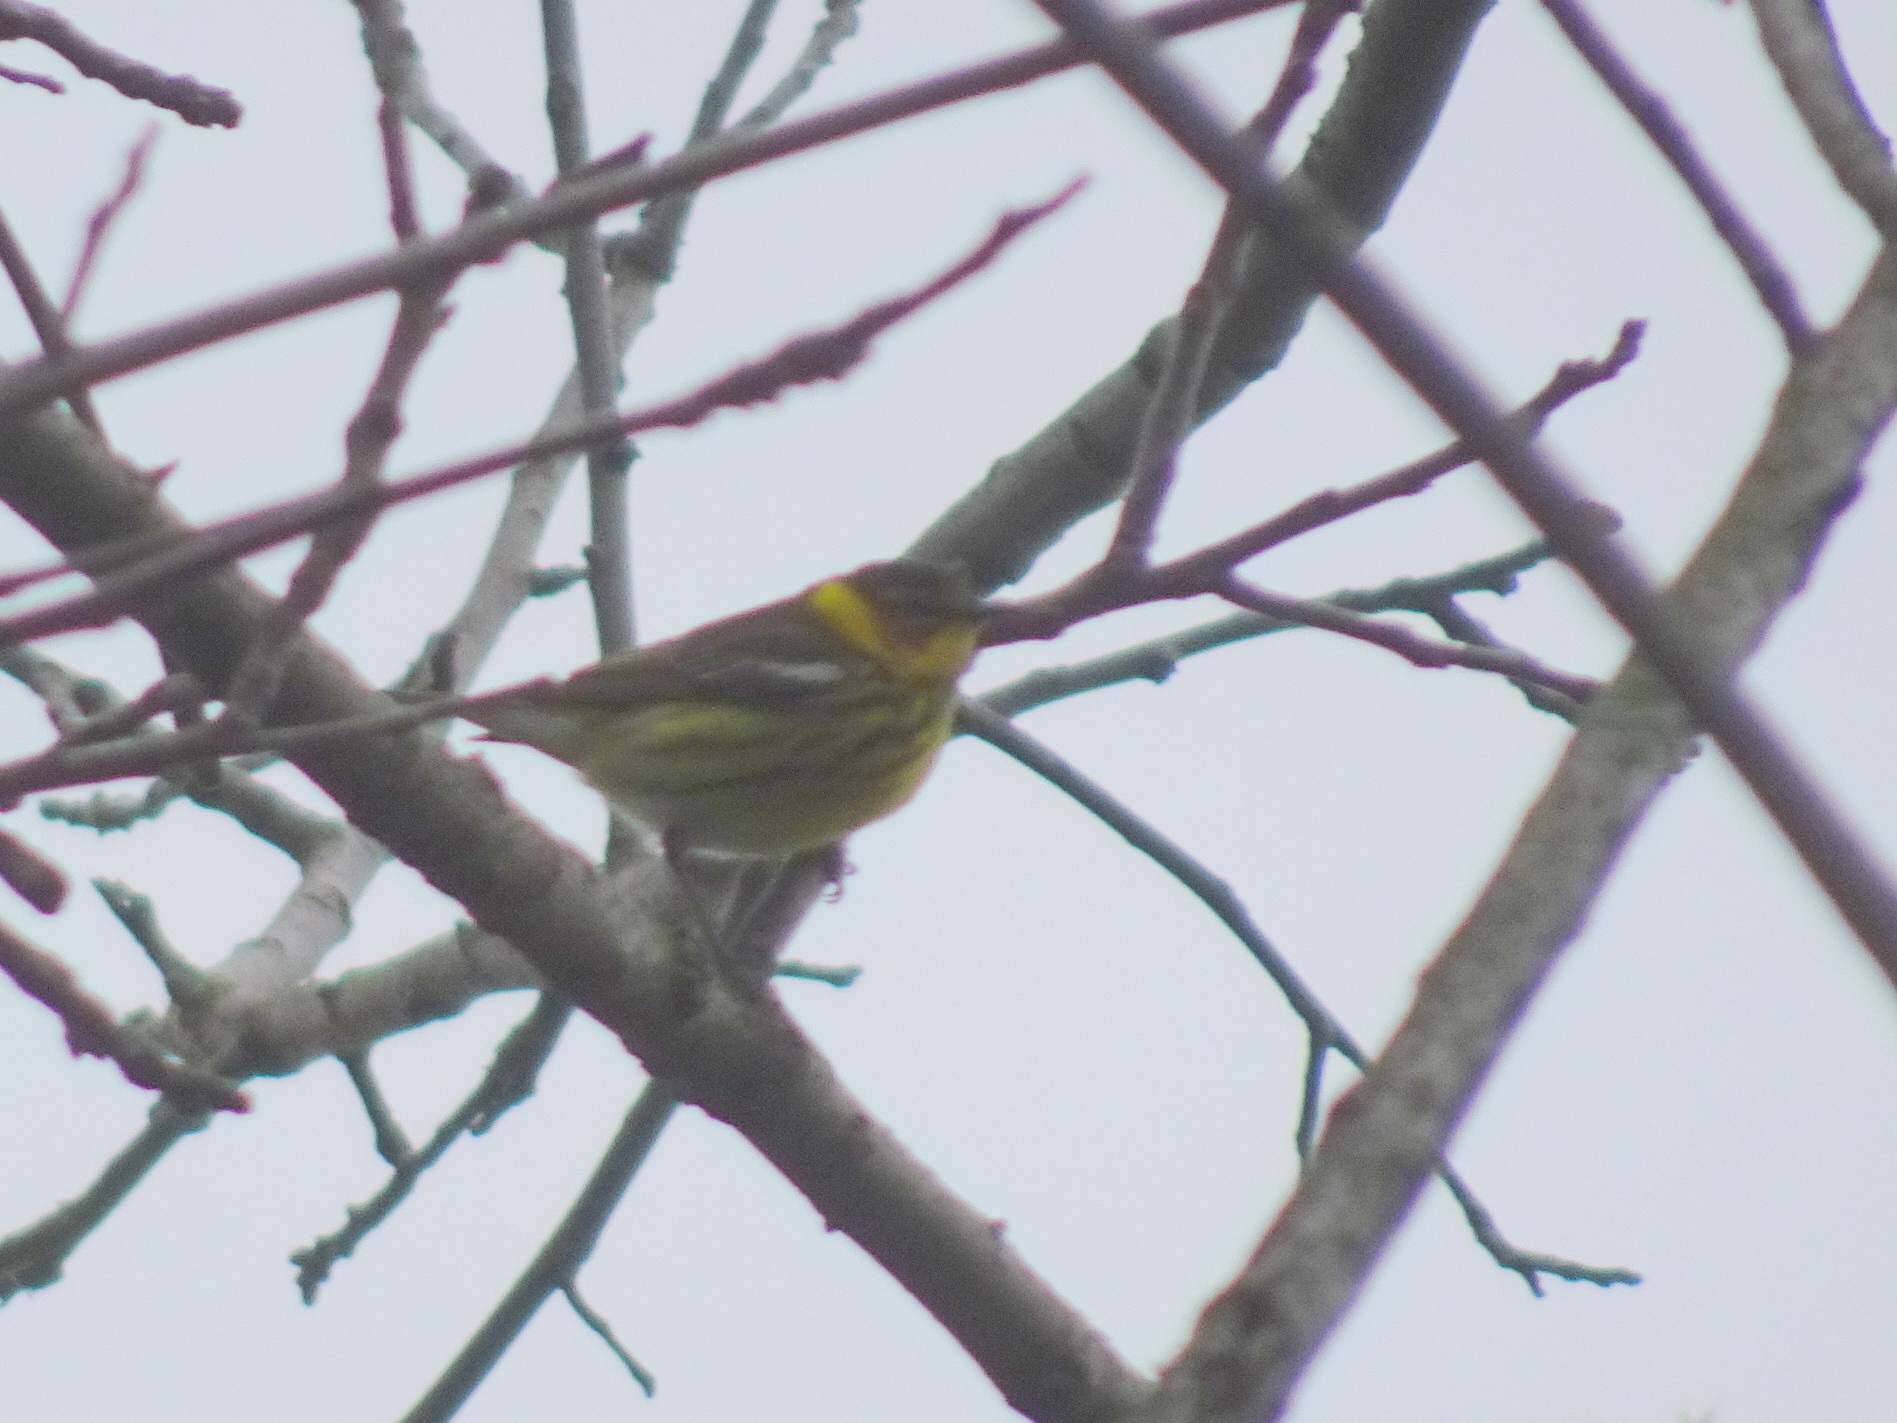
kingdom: Animalia
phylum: Chordata
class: Aves
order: Passeriformes
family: Parulidae
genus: Setophaga
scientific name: Setophaga tigrina
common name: Cape may warbler
